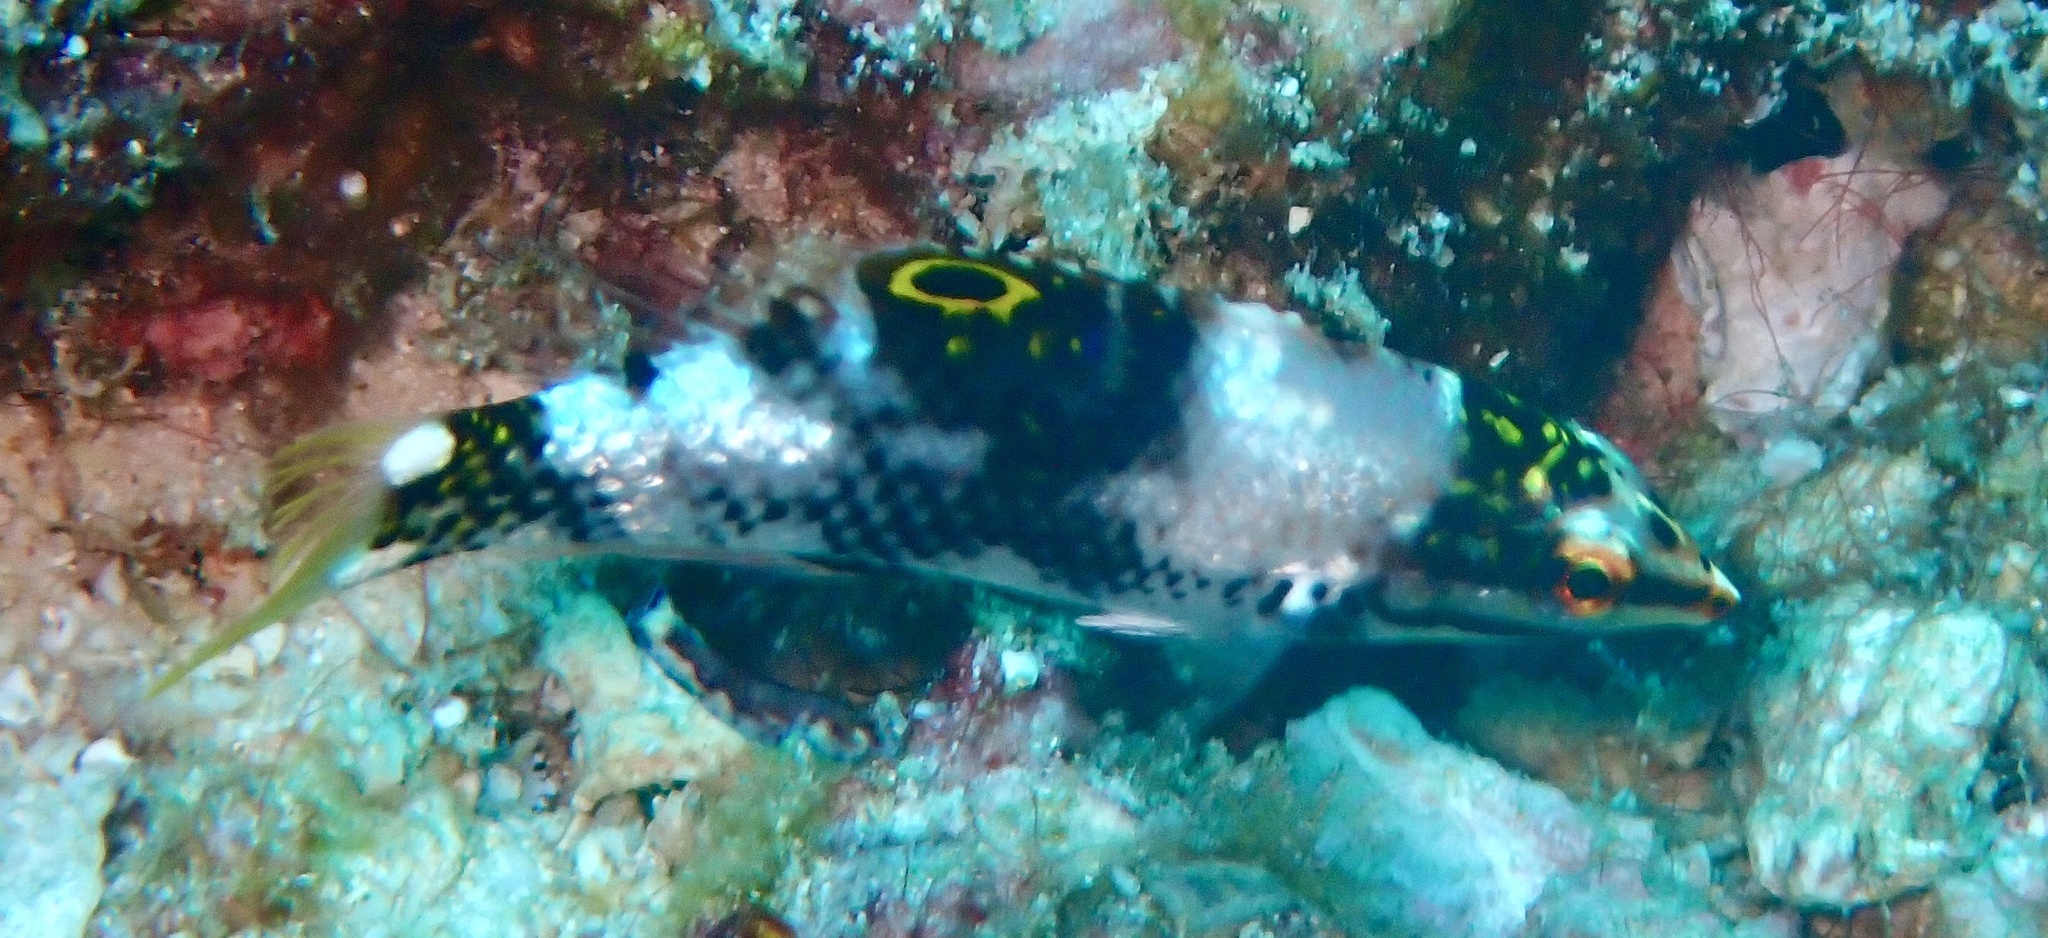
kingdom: Animalia
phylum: Chordata
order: Perciformes
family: Labridae
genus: Halichoeres
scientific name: Halichoeres hortulanus
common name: Checkerboard wrasse
